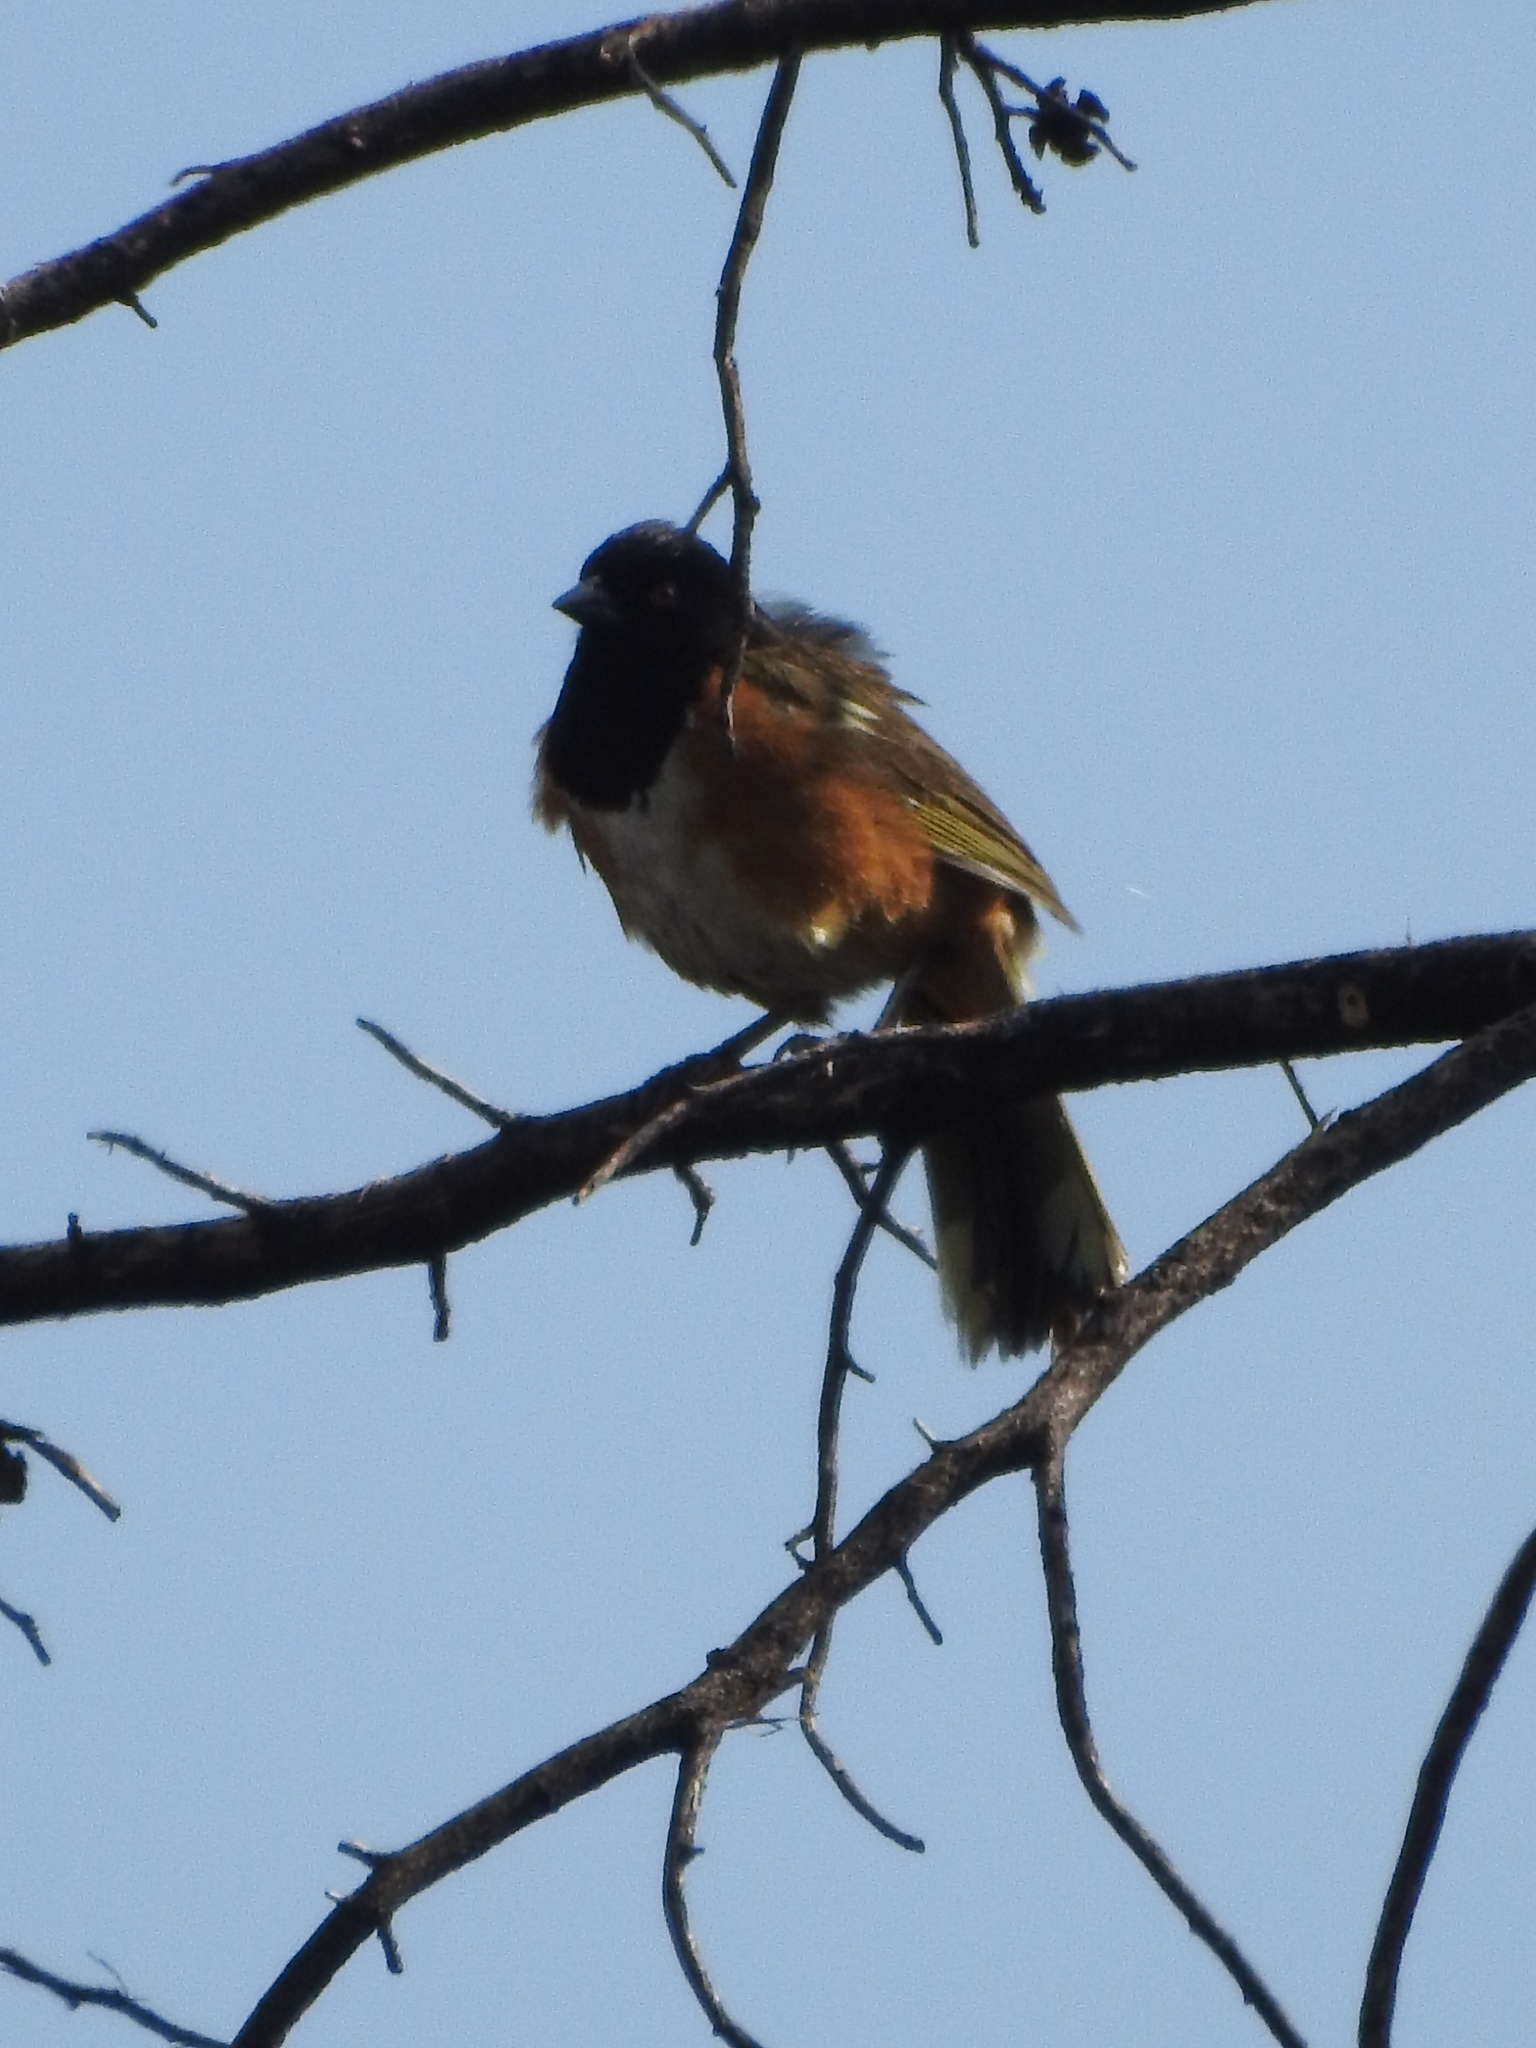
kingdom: Animalia
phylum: Chordata
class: Aves
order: Passeriformes
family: Passerellidae
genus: Pipilo
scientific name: Pipilo maculatus
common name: Spotted towhee
